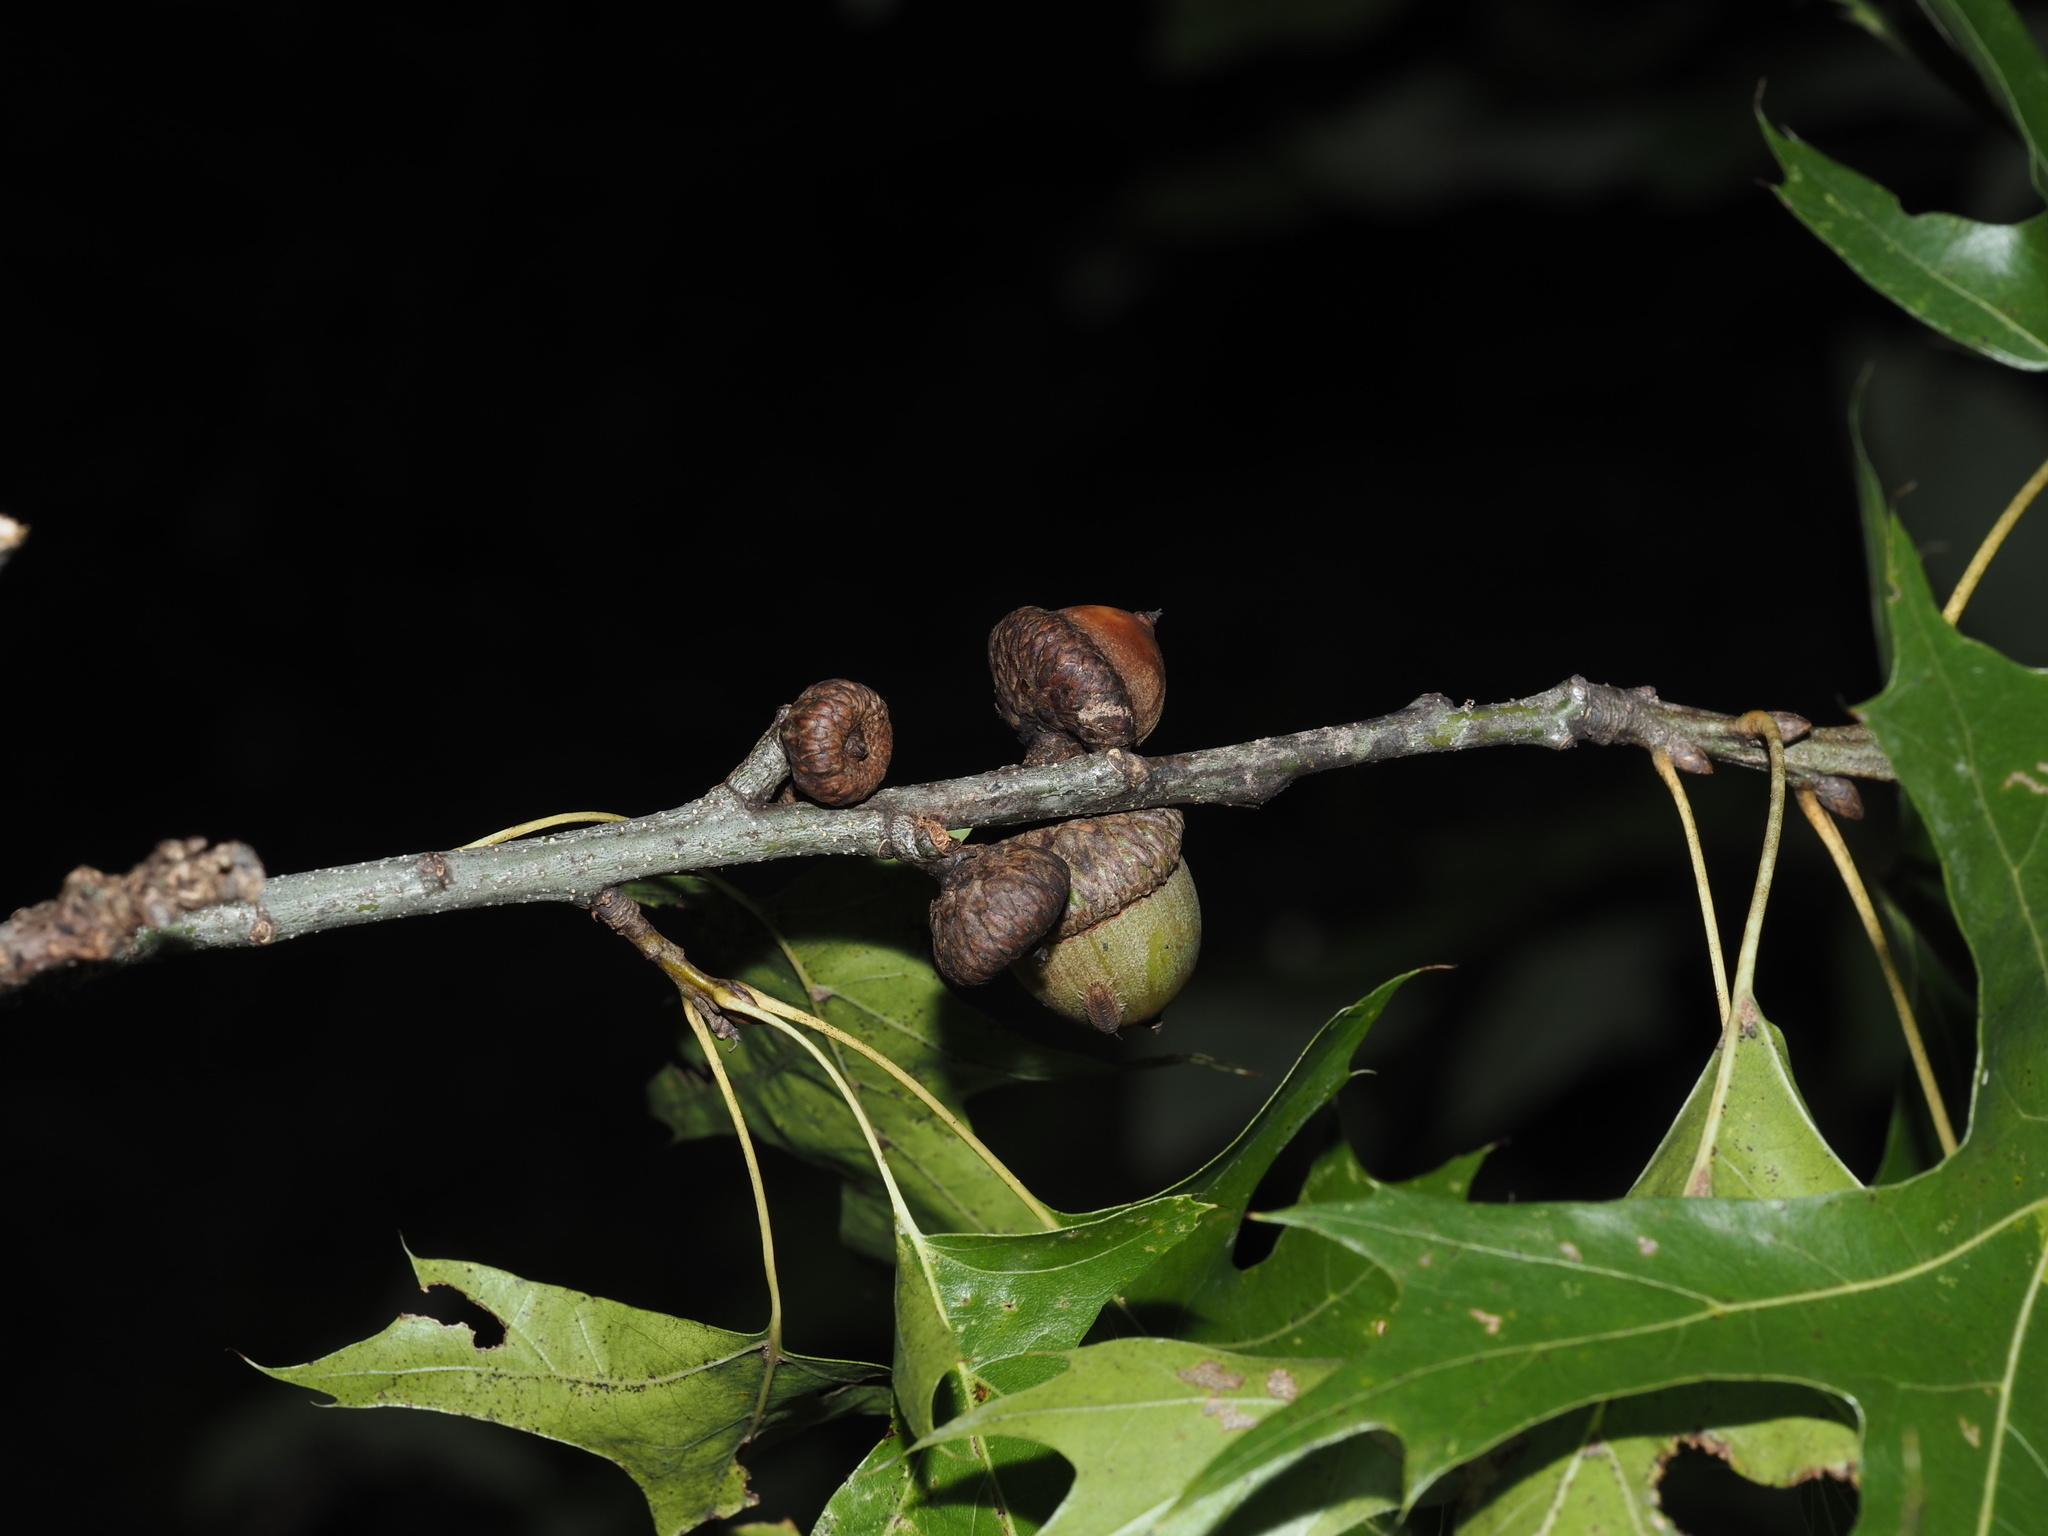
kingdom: Plantae
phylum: Tracheophyta
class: Magnoliopsida
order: Fagales
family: Fagaceae
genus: Quercus
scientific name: Quercus shumardii
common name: Shumard oak
